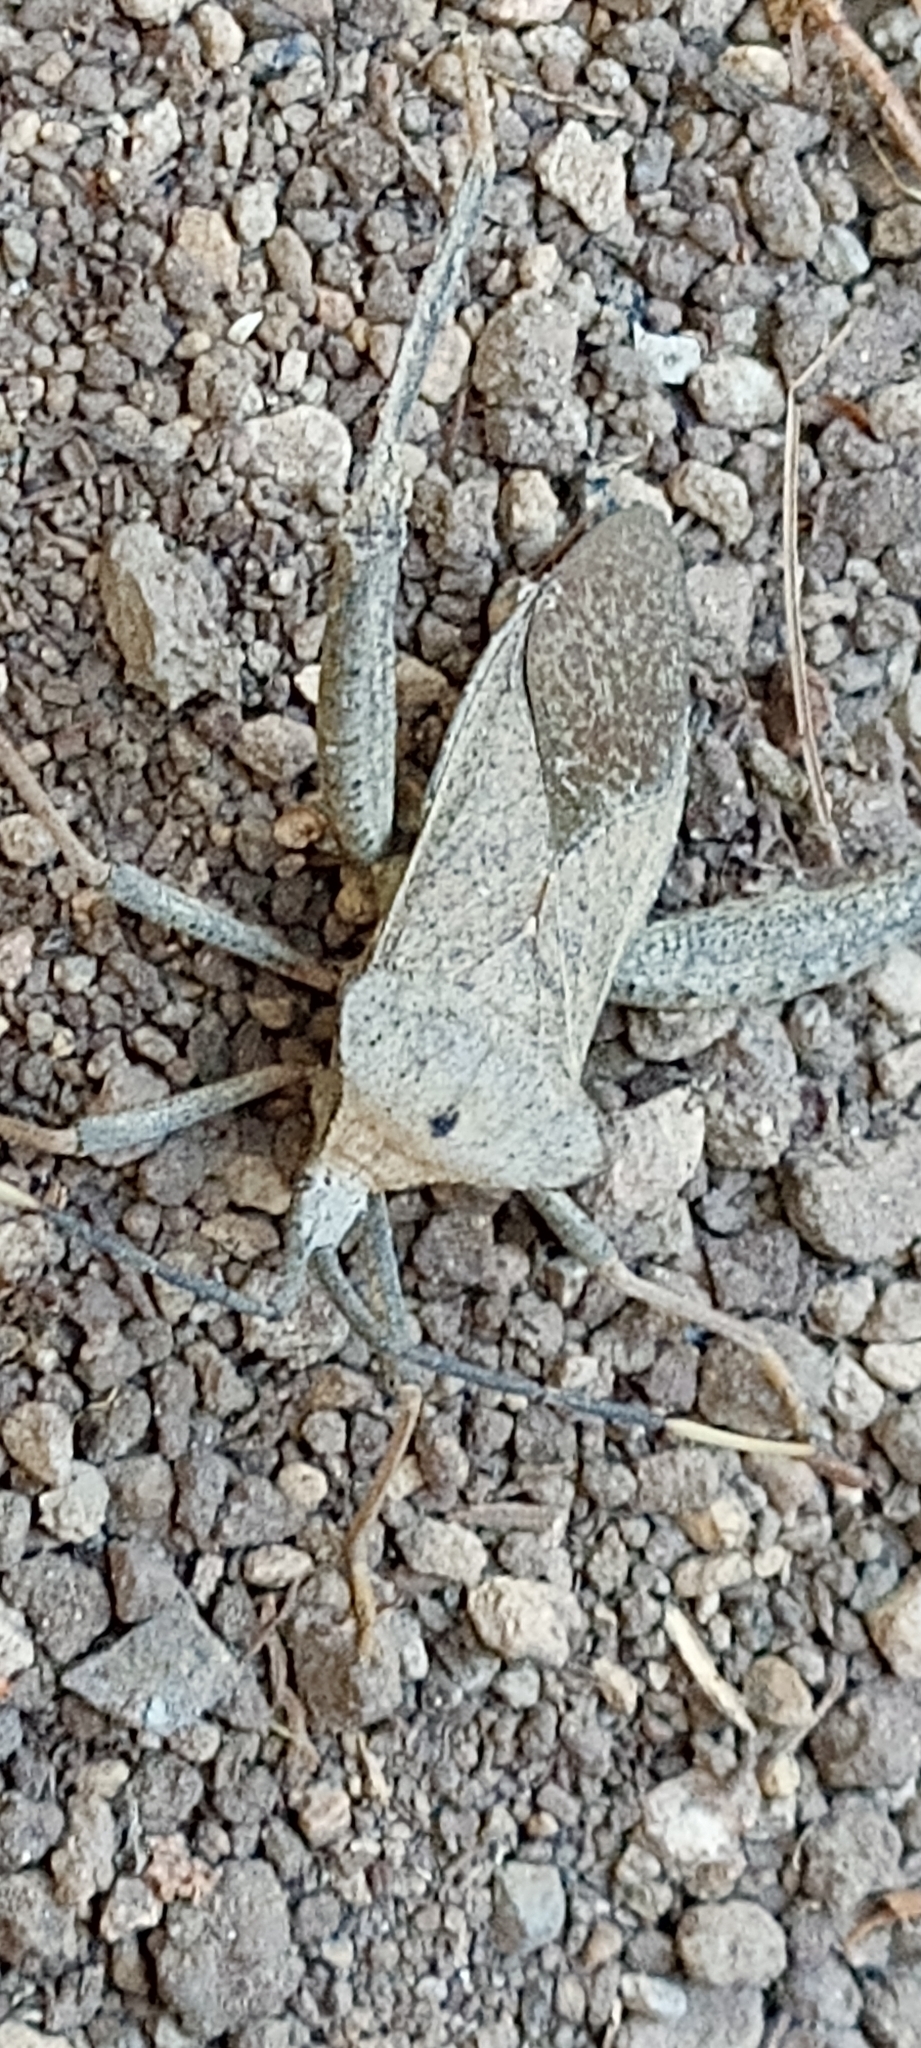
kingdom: Animalia
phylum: Arthropoda
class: Insecta
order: Hemiptera
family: Coreidae
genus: Acanthocephala
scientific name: Acanthocephala alata
